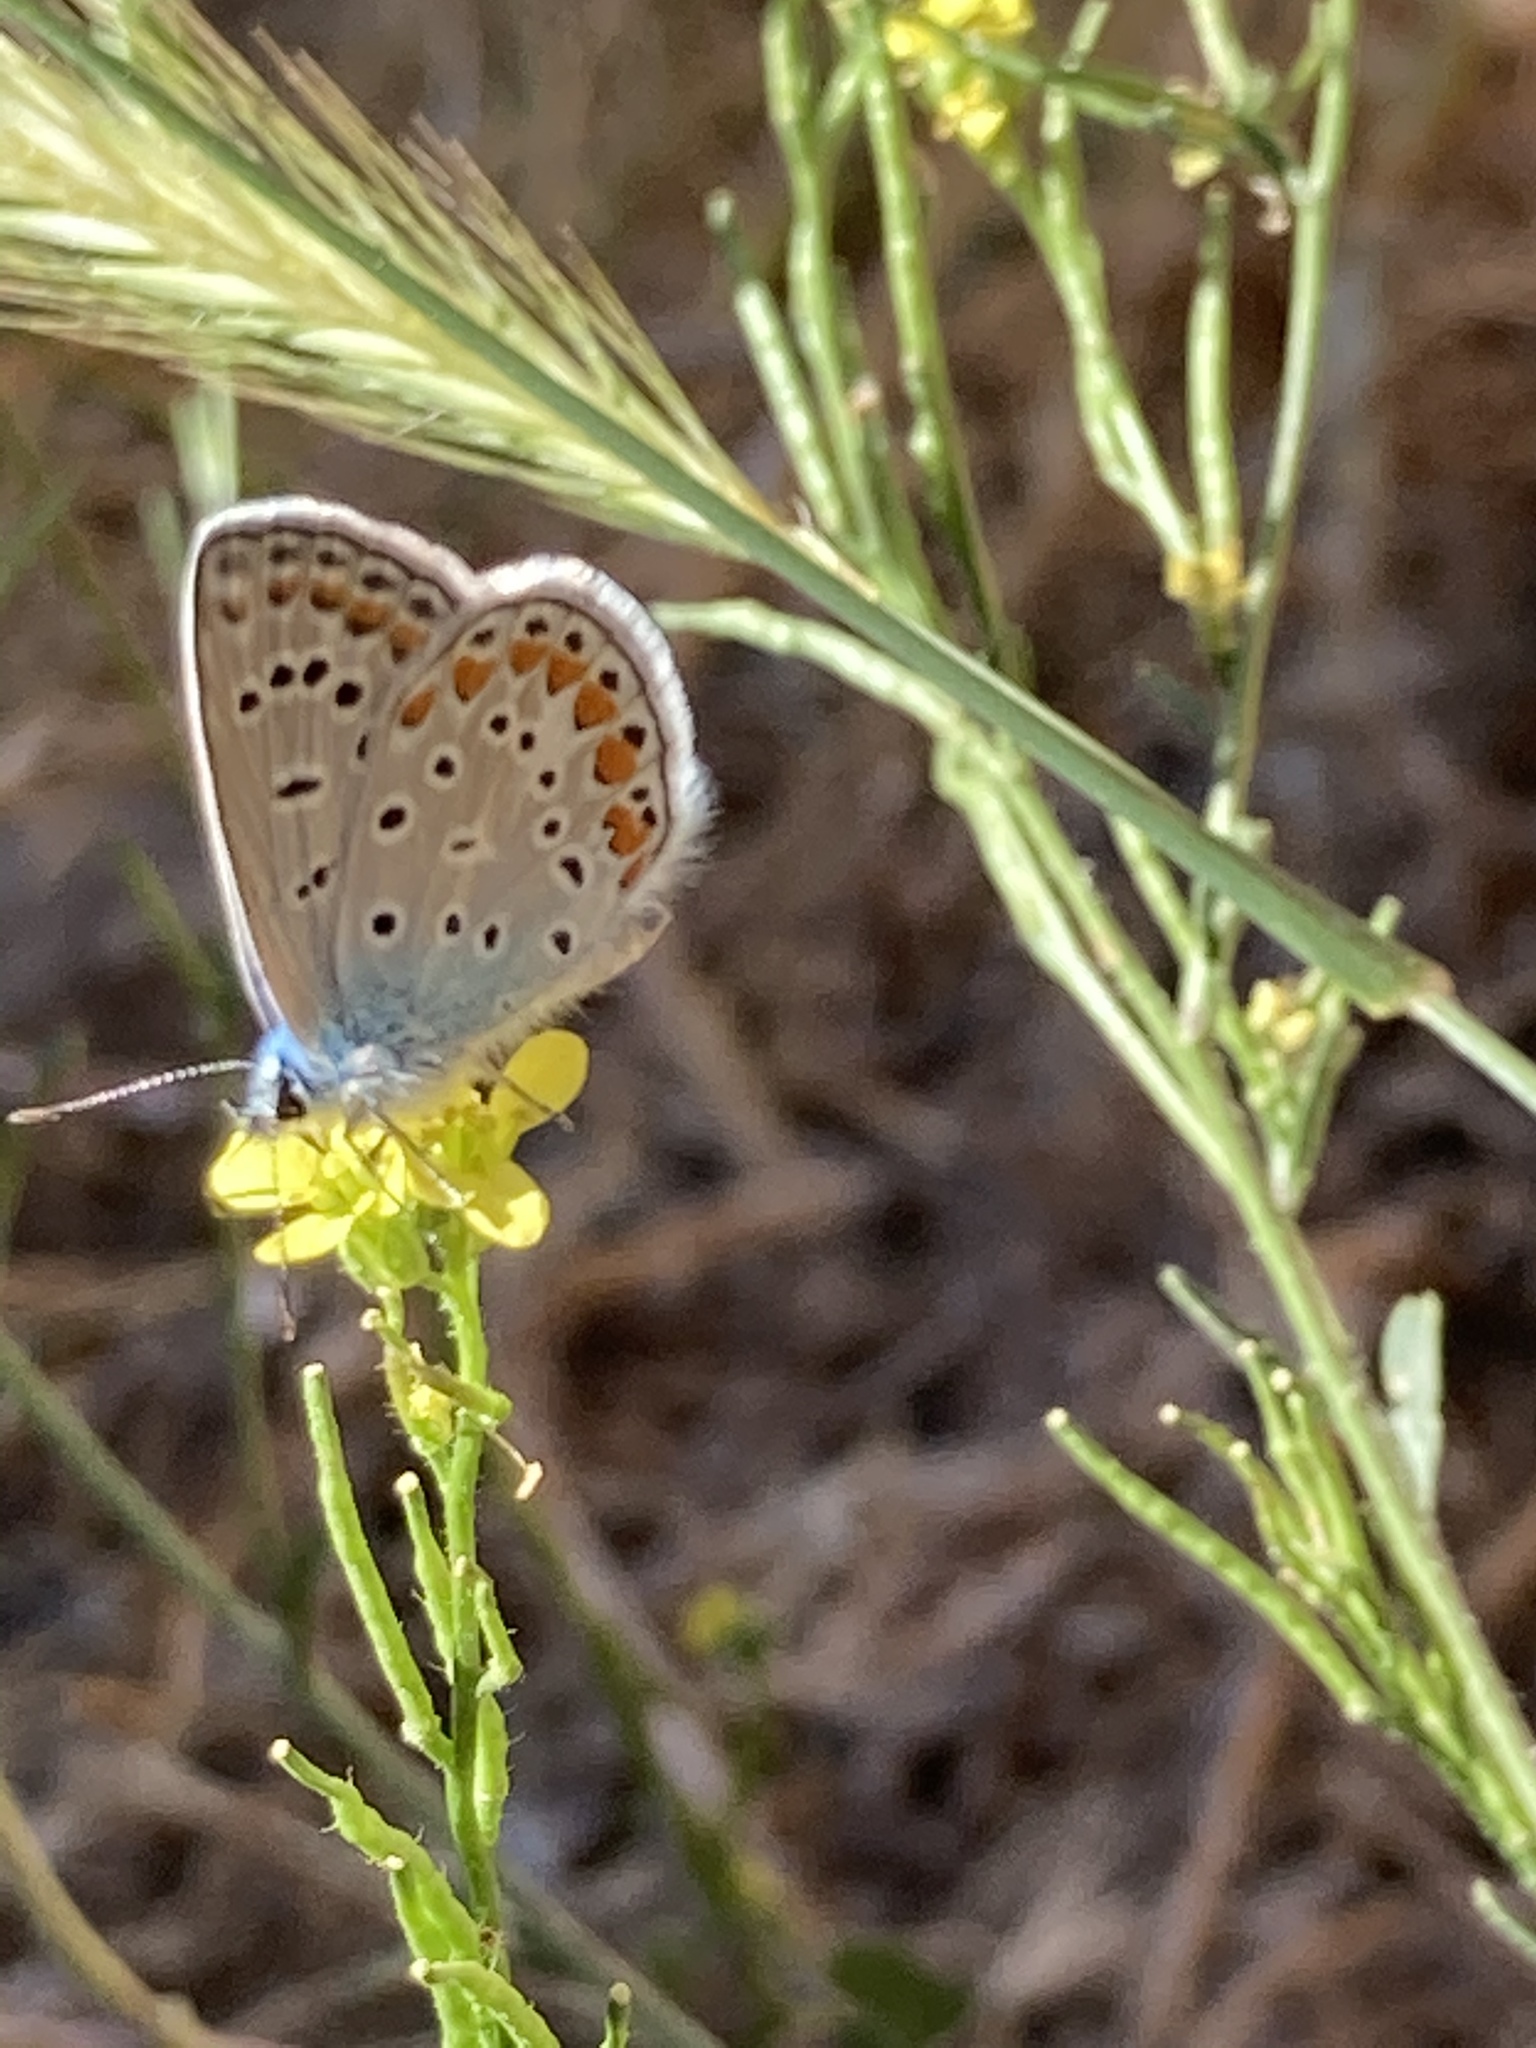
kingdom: Animalia
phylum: Arthropoda
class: Insecta
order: Lepidoptera
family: Lycaenidae
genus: Polyommatus
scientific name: Polyommatus icarus
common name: Common blue
